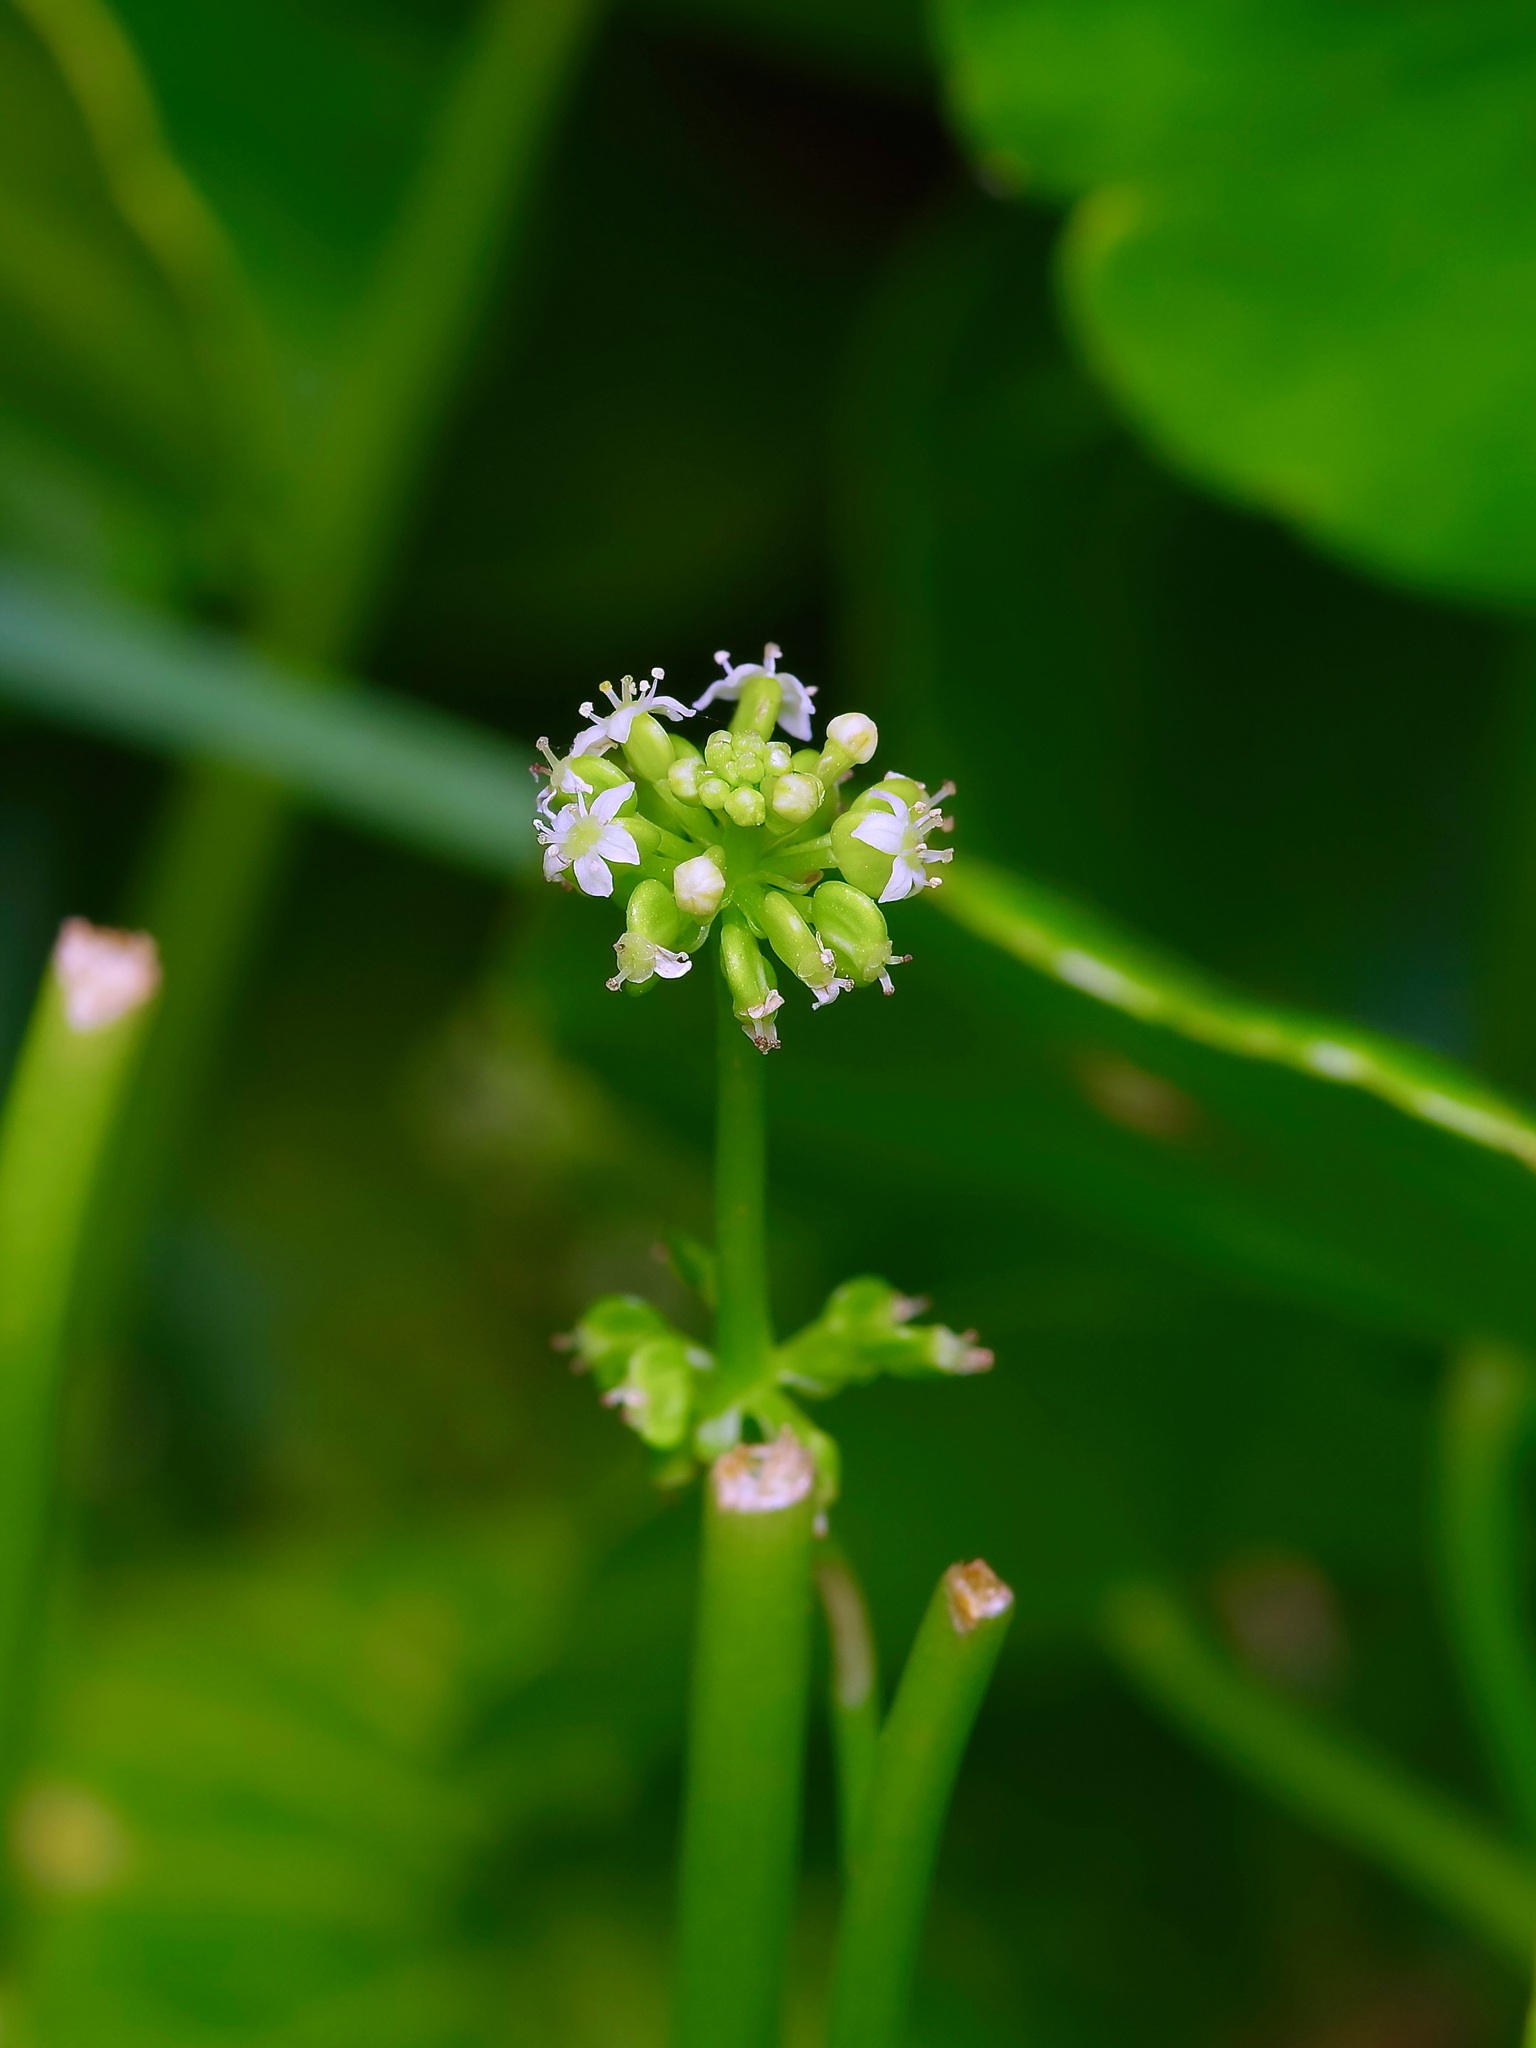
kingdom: Plantae
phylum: Tracheophyta
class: Magnoliopsida
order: Apiales
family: Araliaceae
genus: Hydrocotyle
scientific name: Hydrocotyle prolifera
